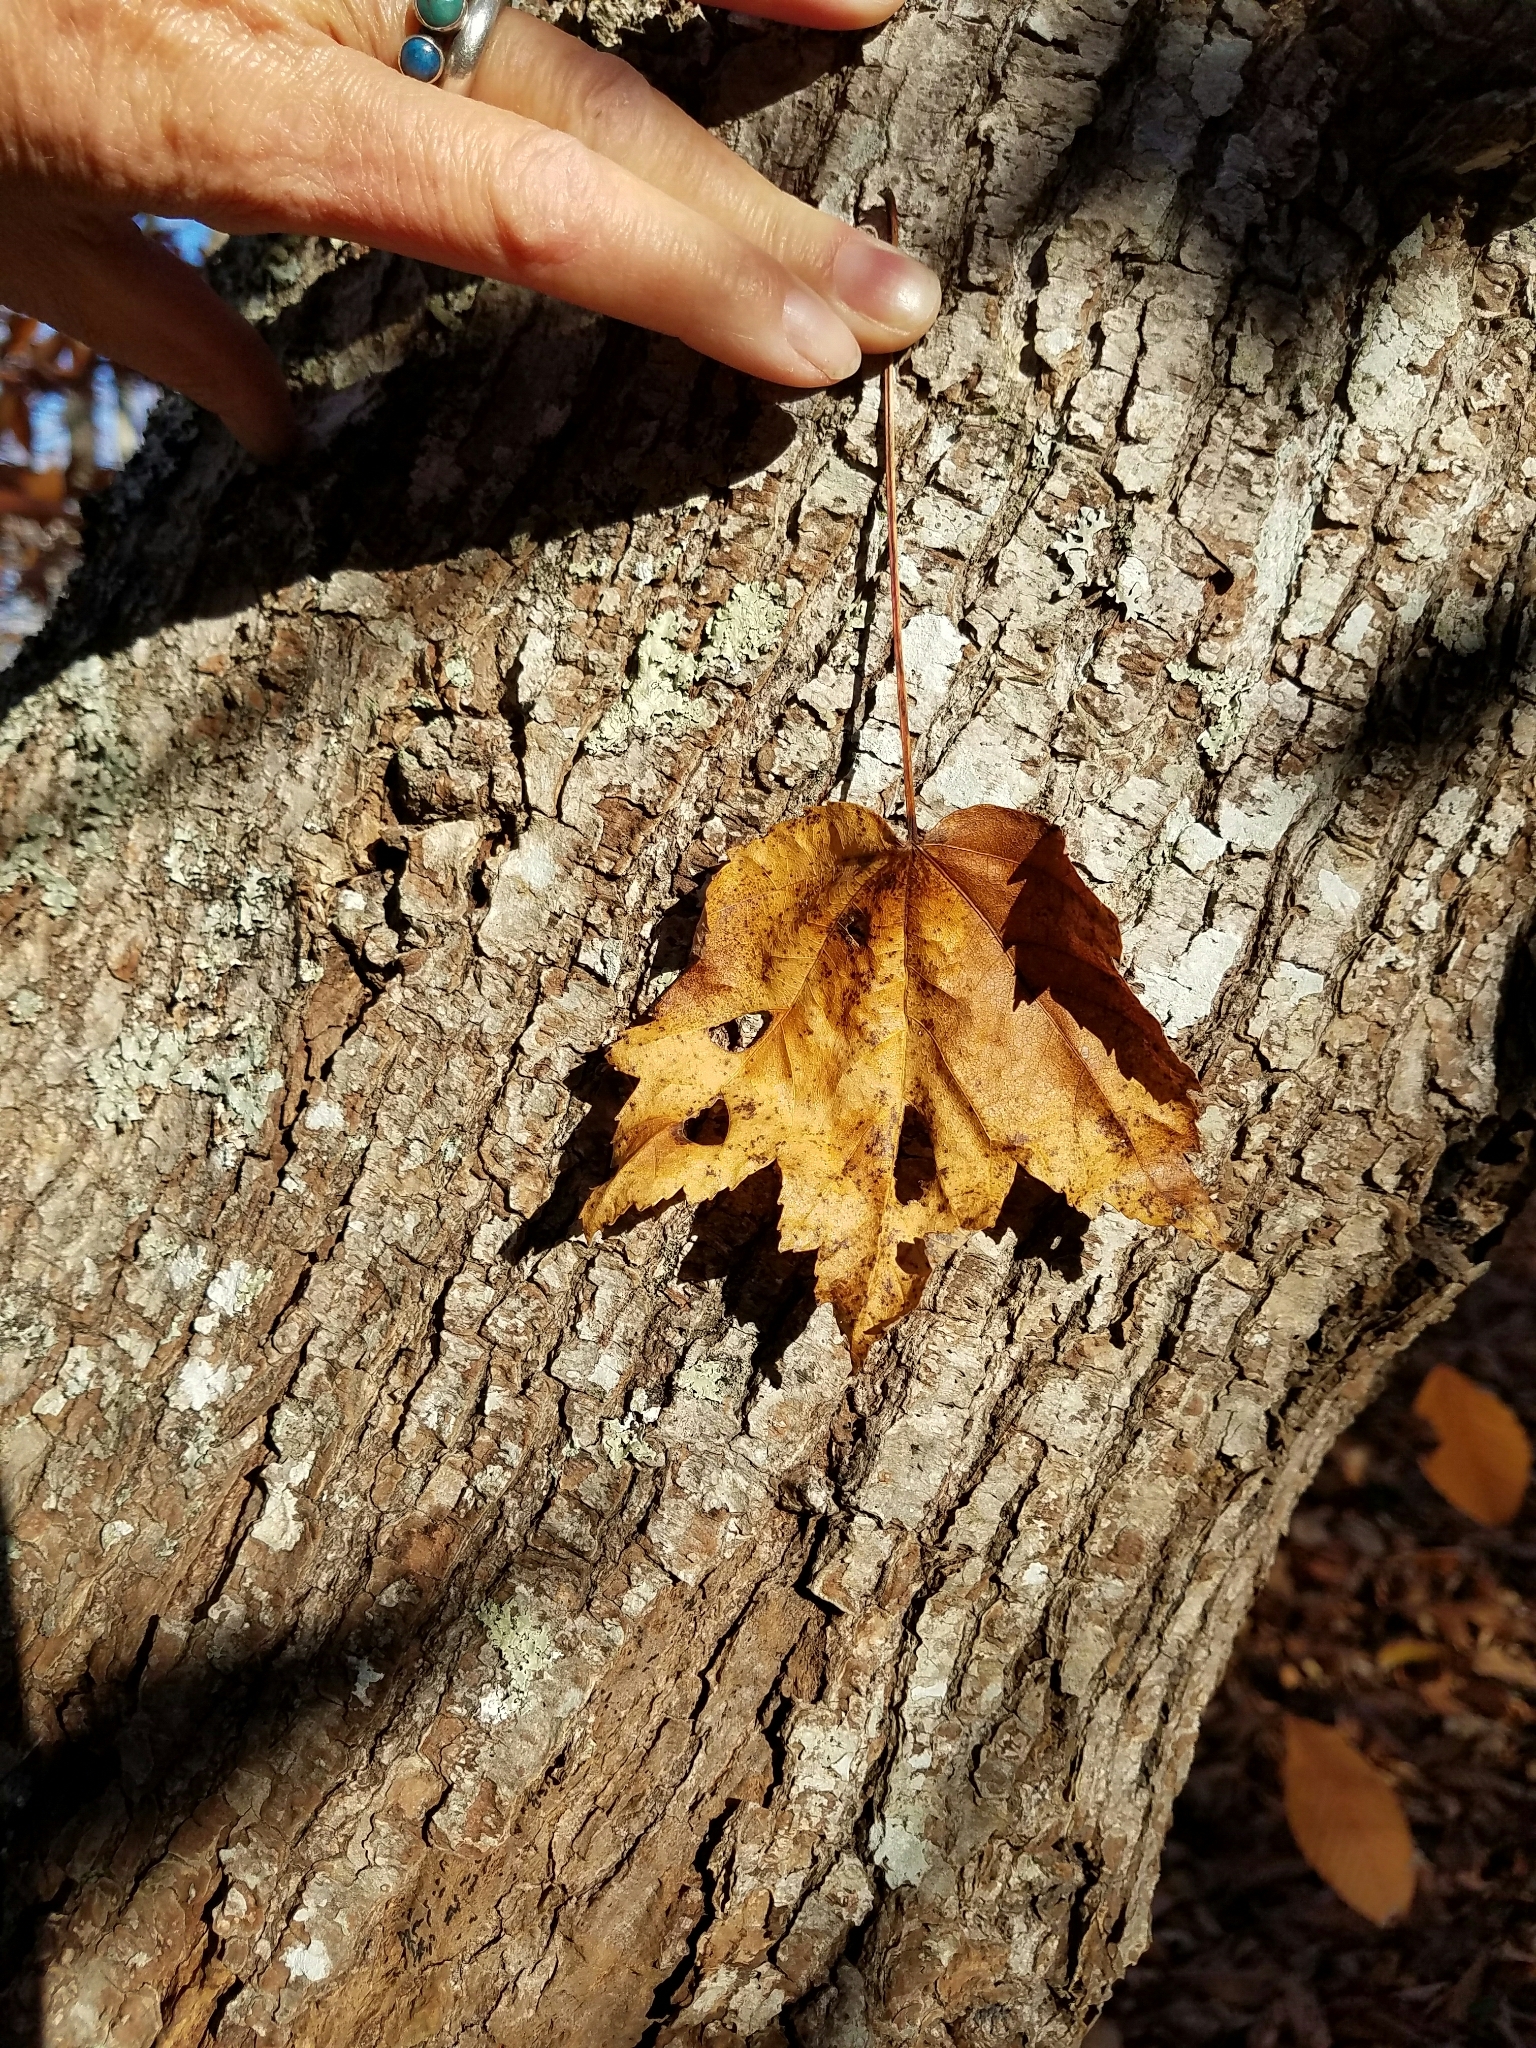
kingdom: Plantae
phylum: Tracheophyta
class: Magnoliopsida
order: Sapindales
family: Sapindaceae
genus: Acer
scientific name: Acer rubrum
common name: Red maple
